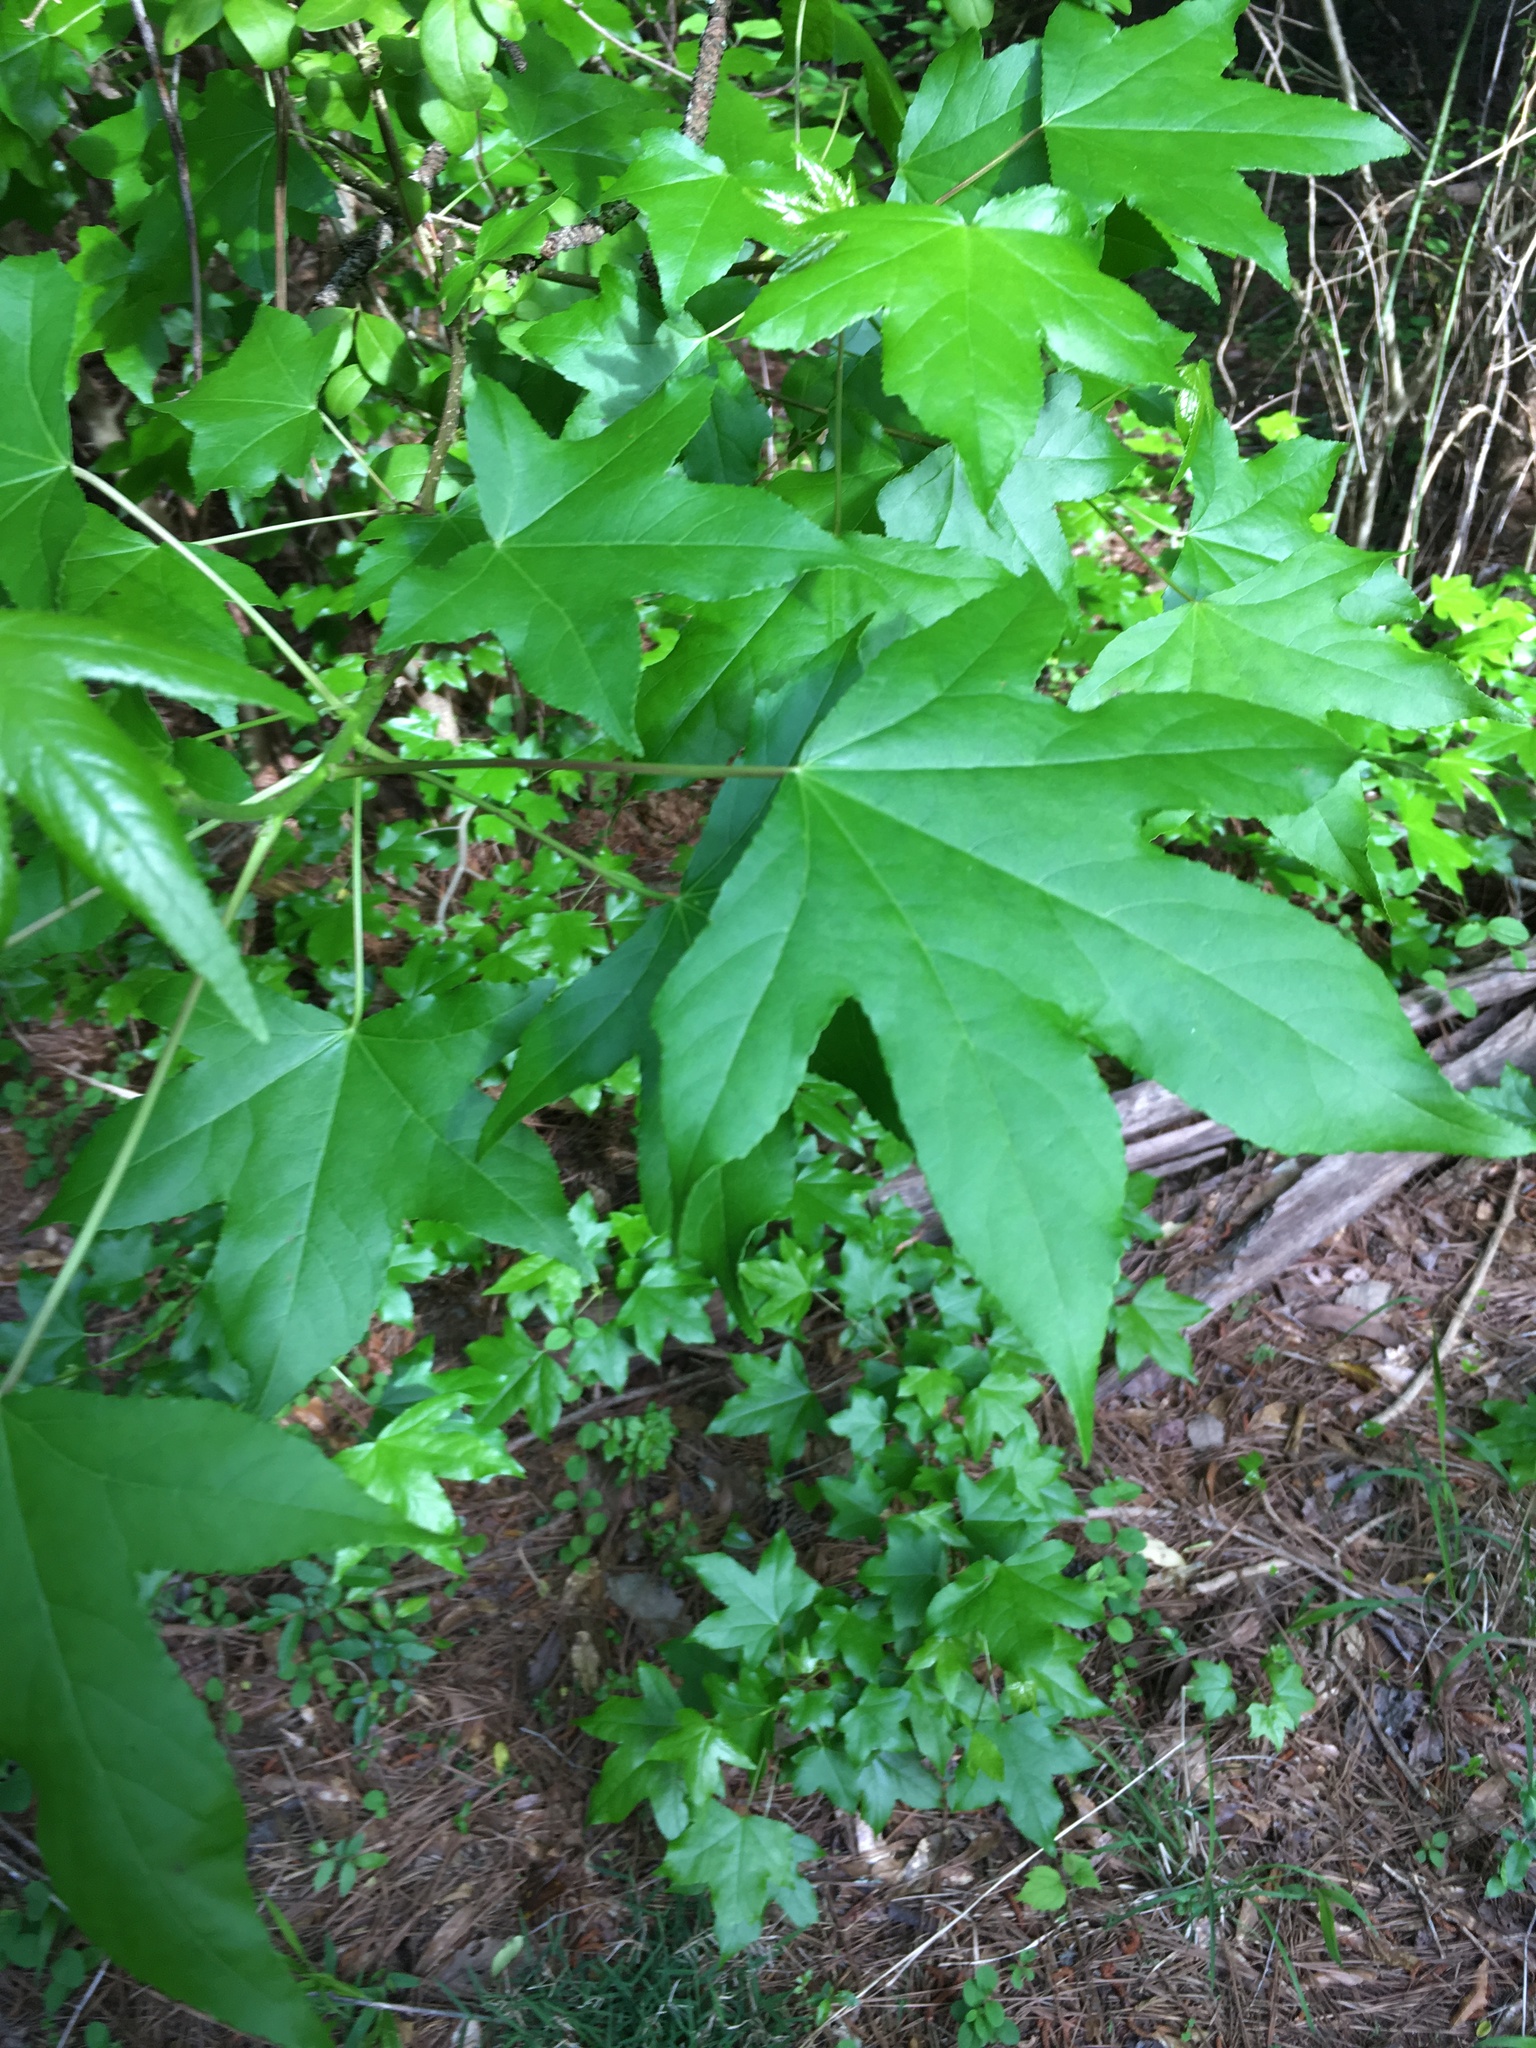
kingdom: Plantae
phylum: Tracheophyta
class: Magnoliopsida
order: Saxifragales
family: Altingiaceae
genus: Liquidambar
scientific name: Liquidambar styraciflua
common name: Sweet gum
